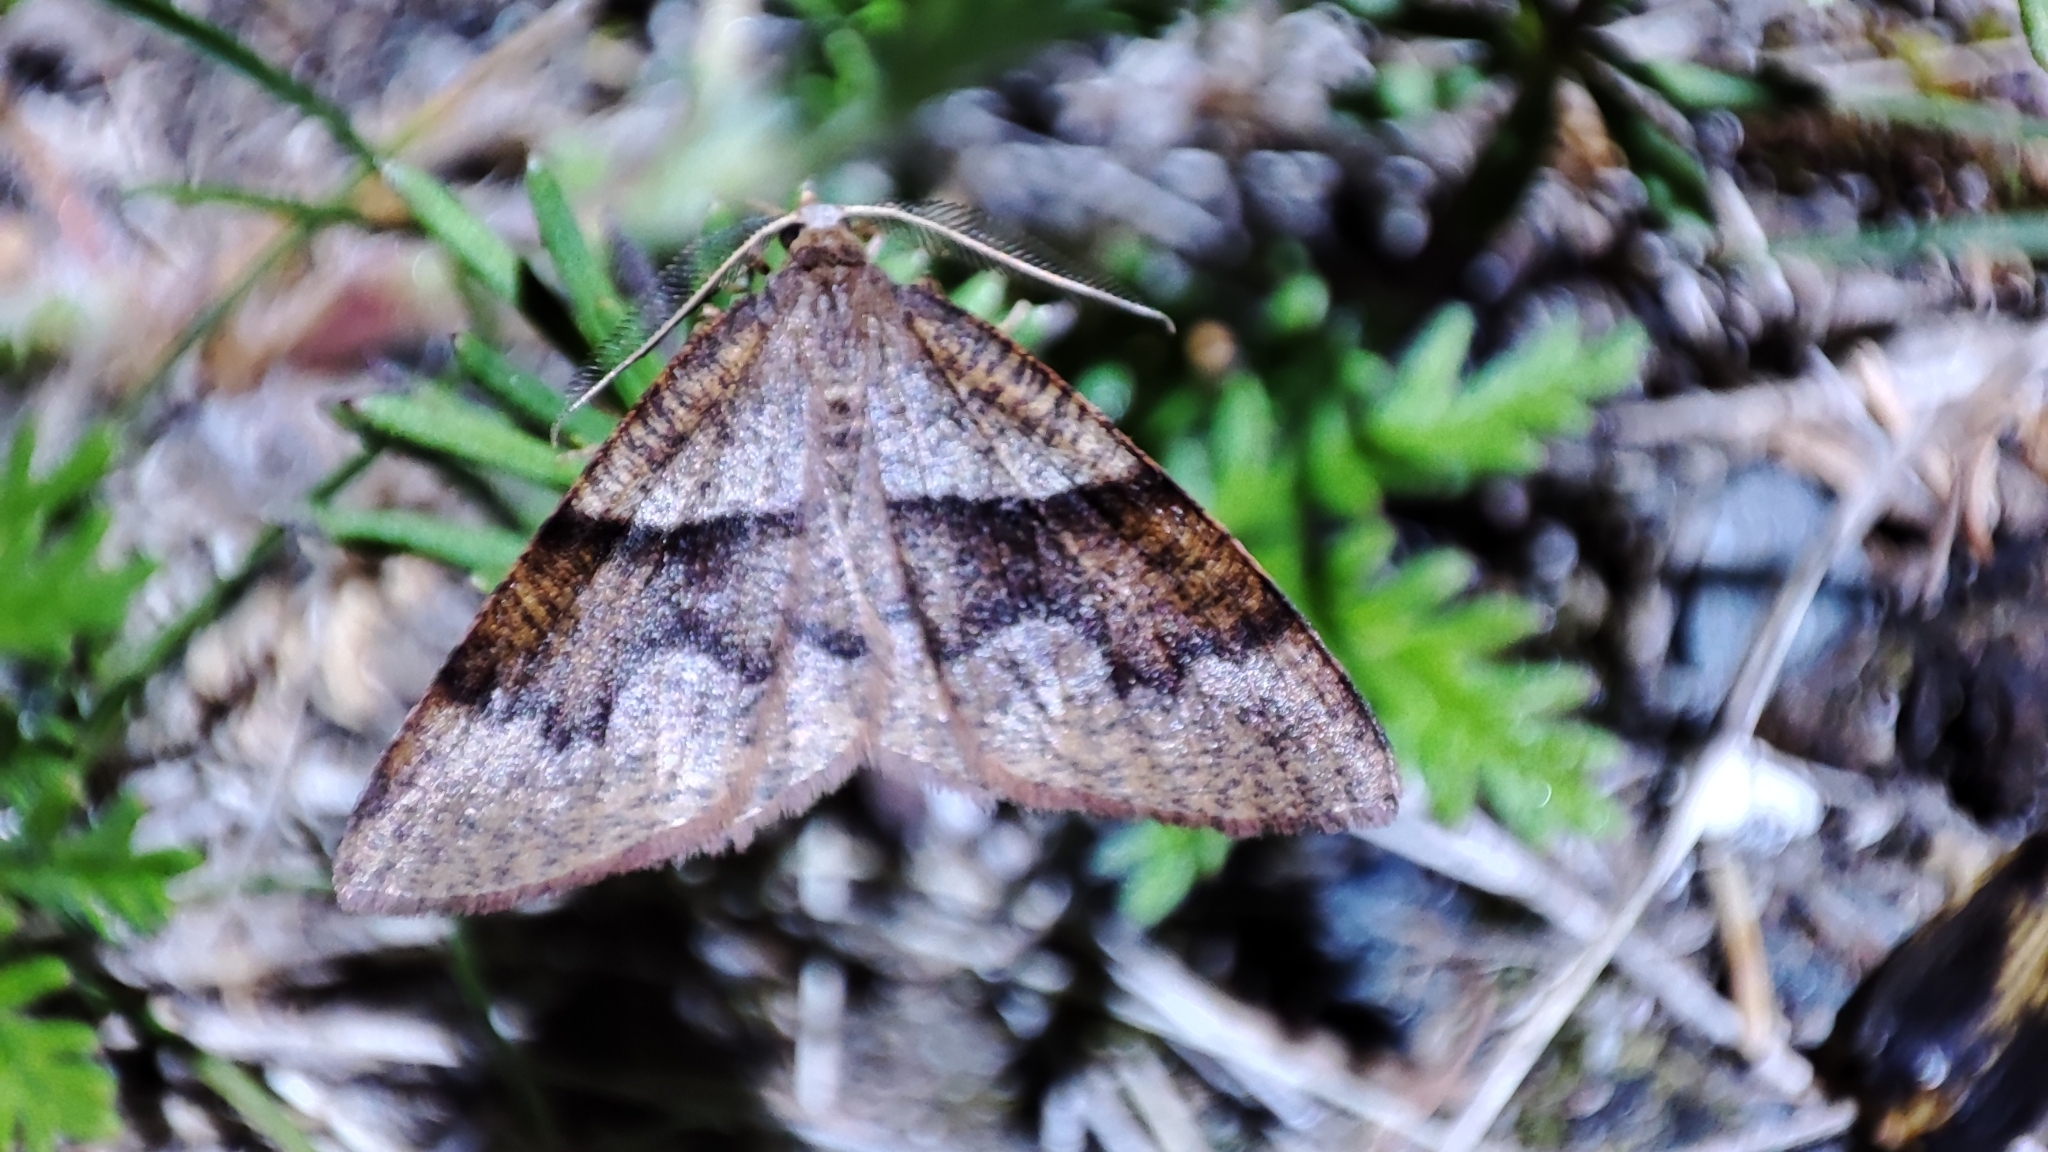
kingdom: Animalia
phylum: Arthropoda
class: Insecta
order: Lepidoptera
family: Geometridae
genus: Plagodis
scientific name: Plagodis pulveraria
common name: Barred umber
